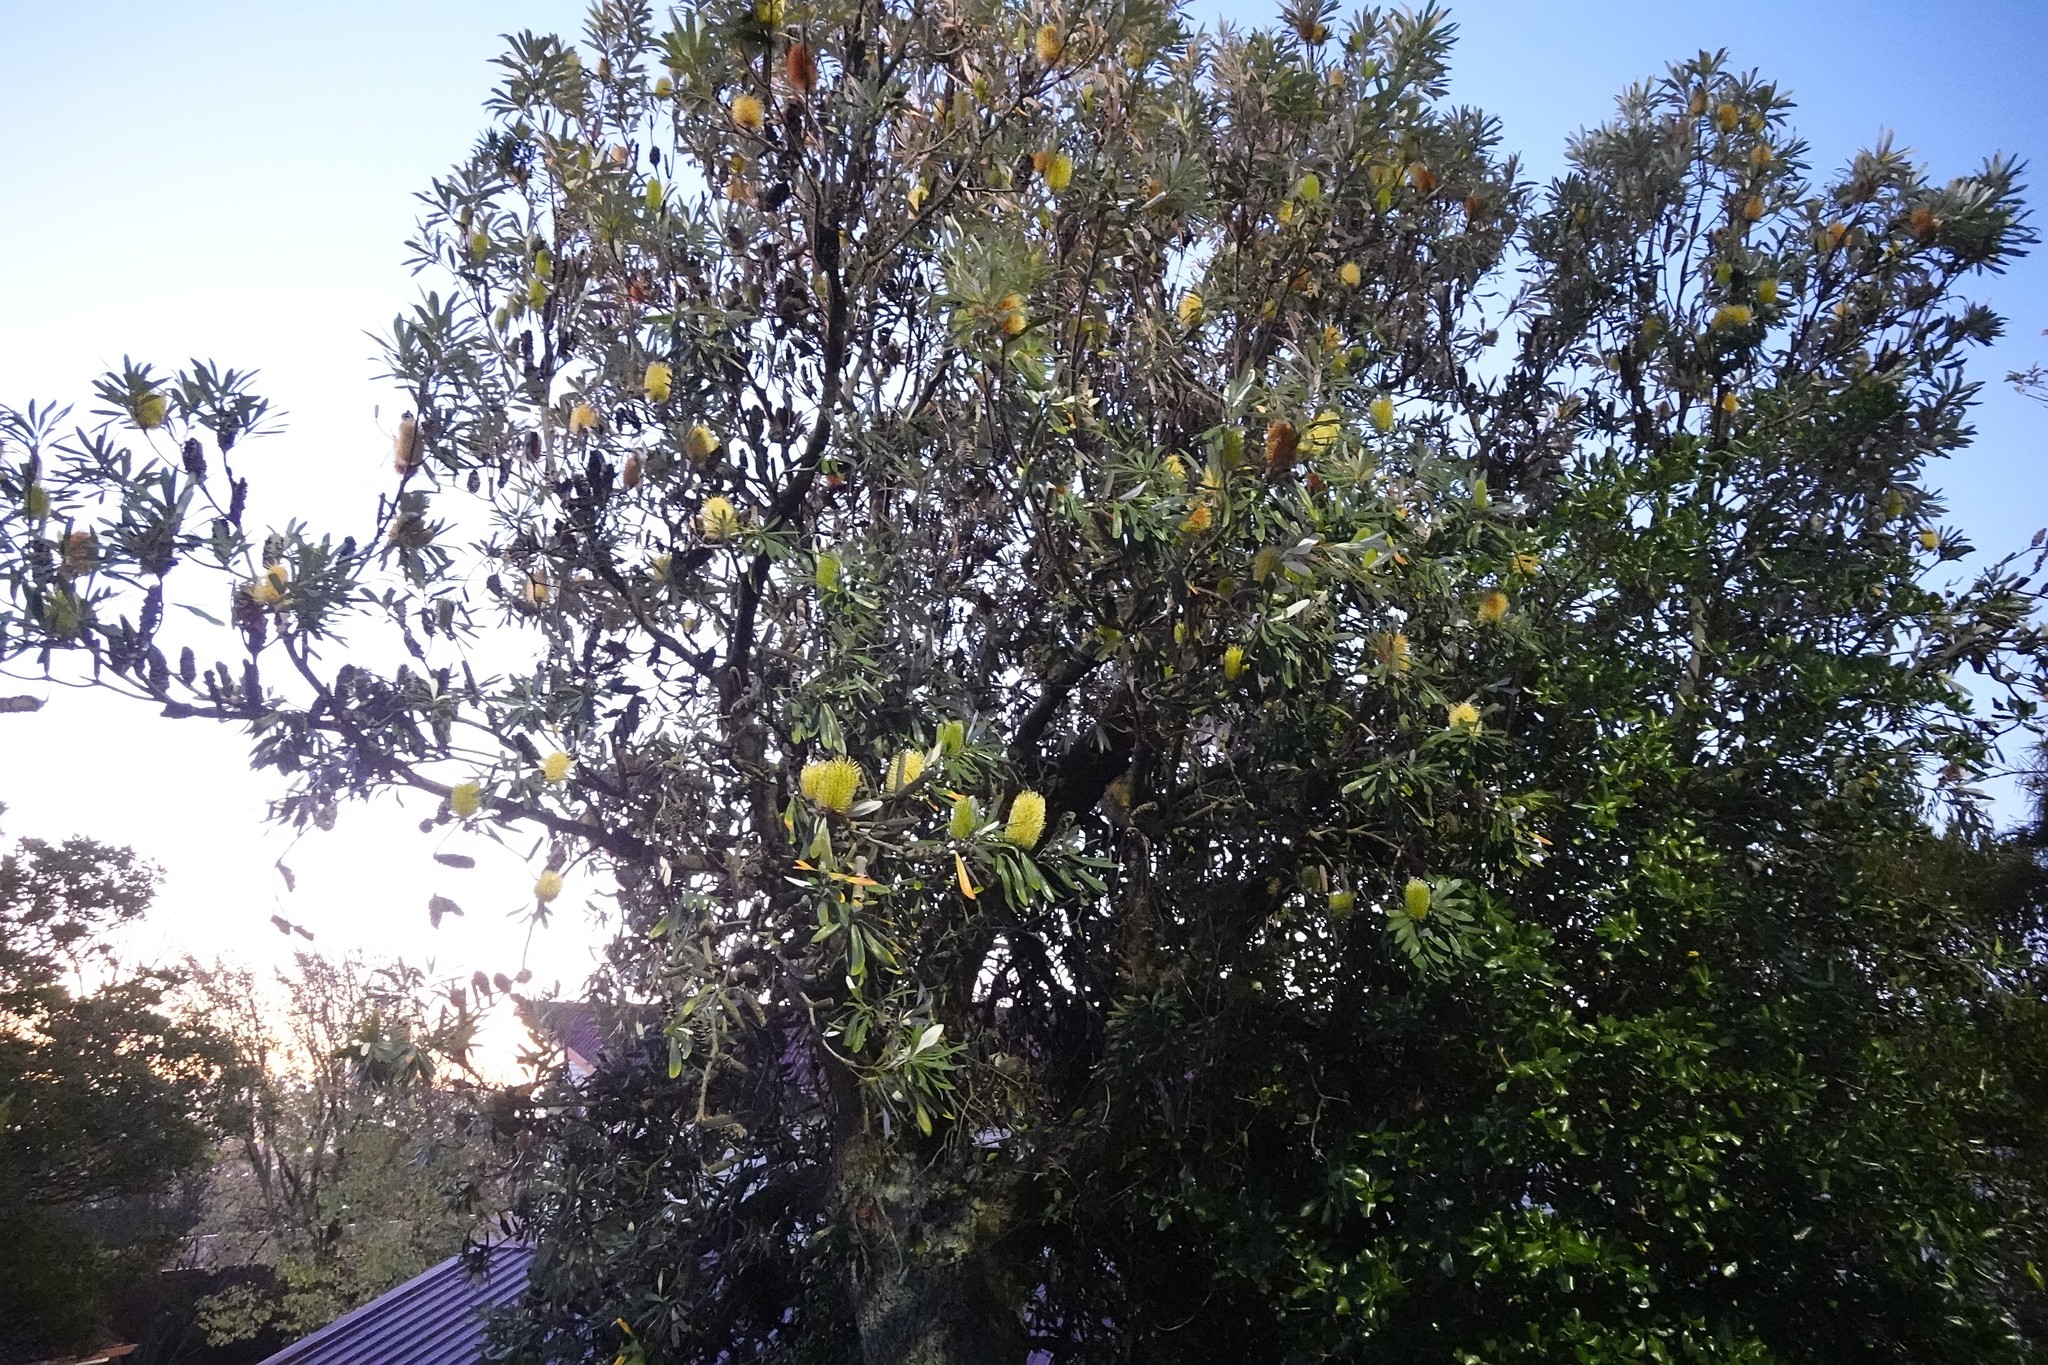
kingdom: Plantae
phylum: Tracheophyta
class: Magnoliopsida
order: Proteales
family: Proteaceae
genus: Banksia
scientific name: Banksia integrifolia
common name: White-honeysuckle
